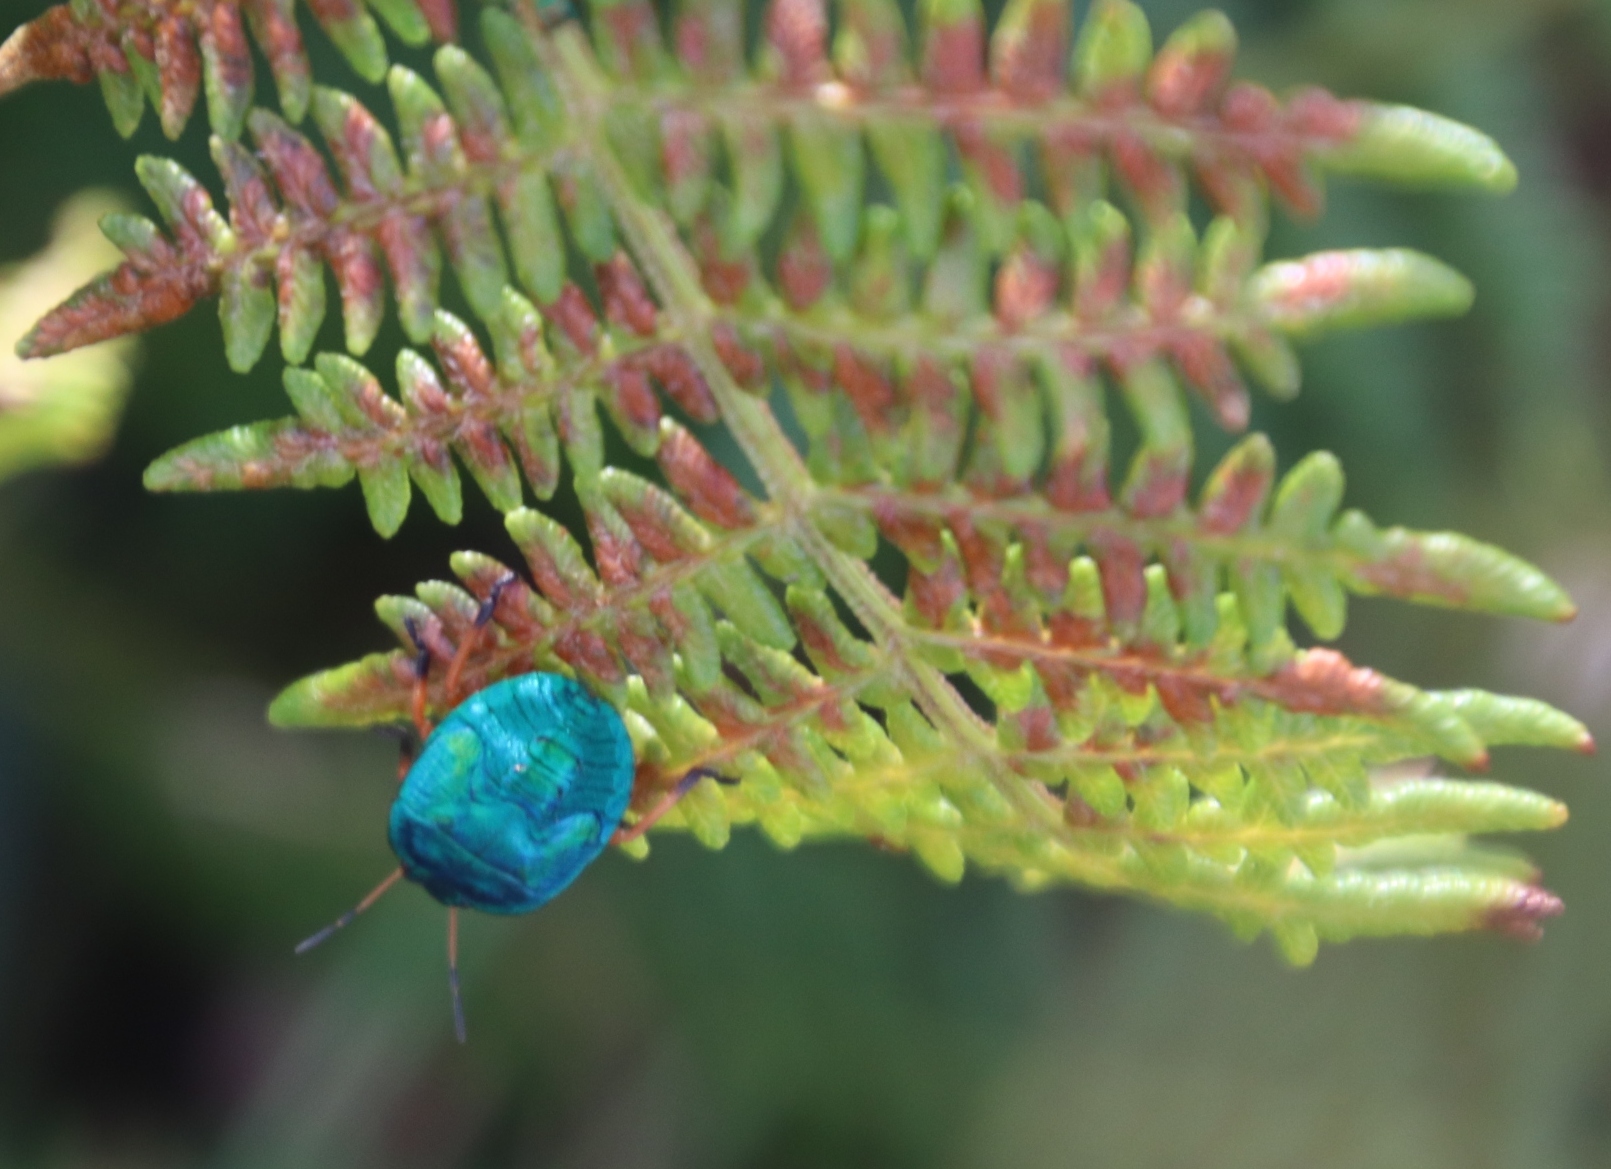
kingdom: Animalia
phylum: Arthropoda
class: Insecta
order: Hemiptera
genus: Erachtheus
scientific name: Erachtheus
